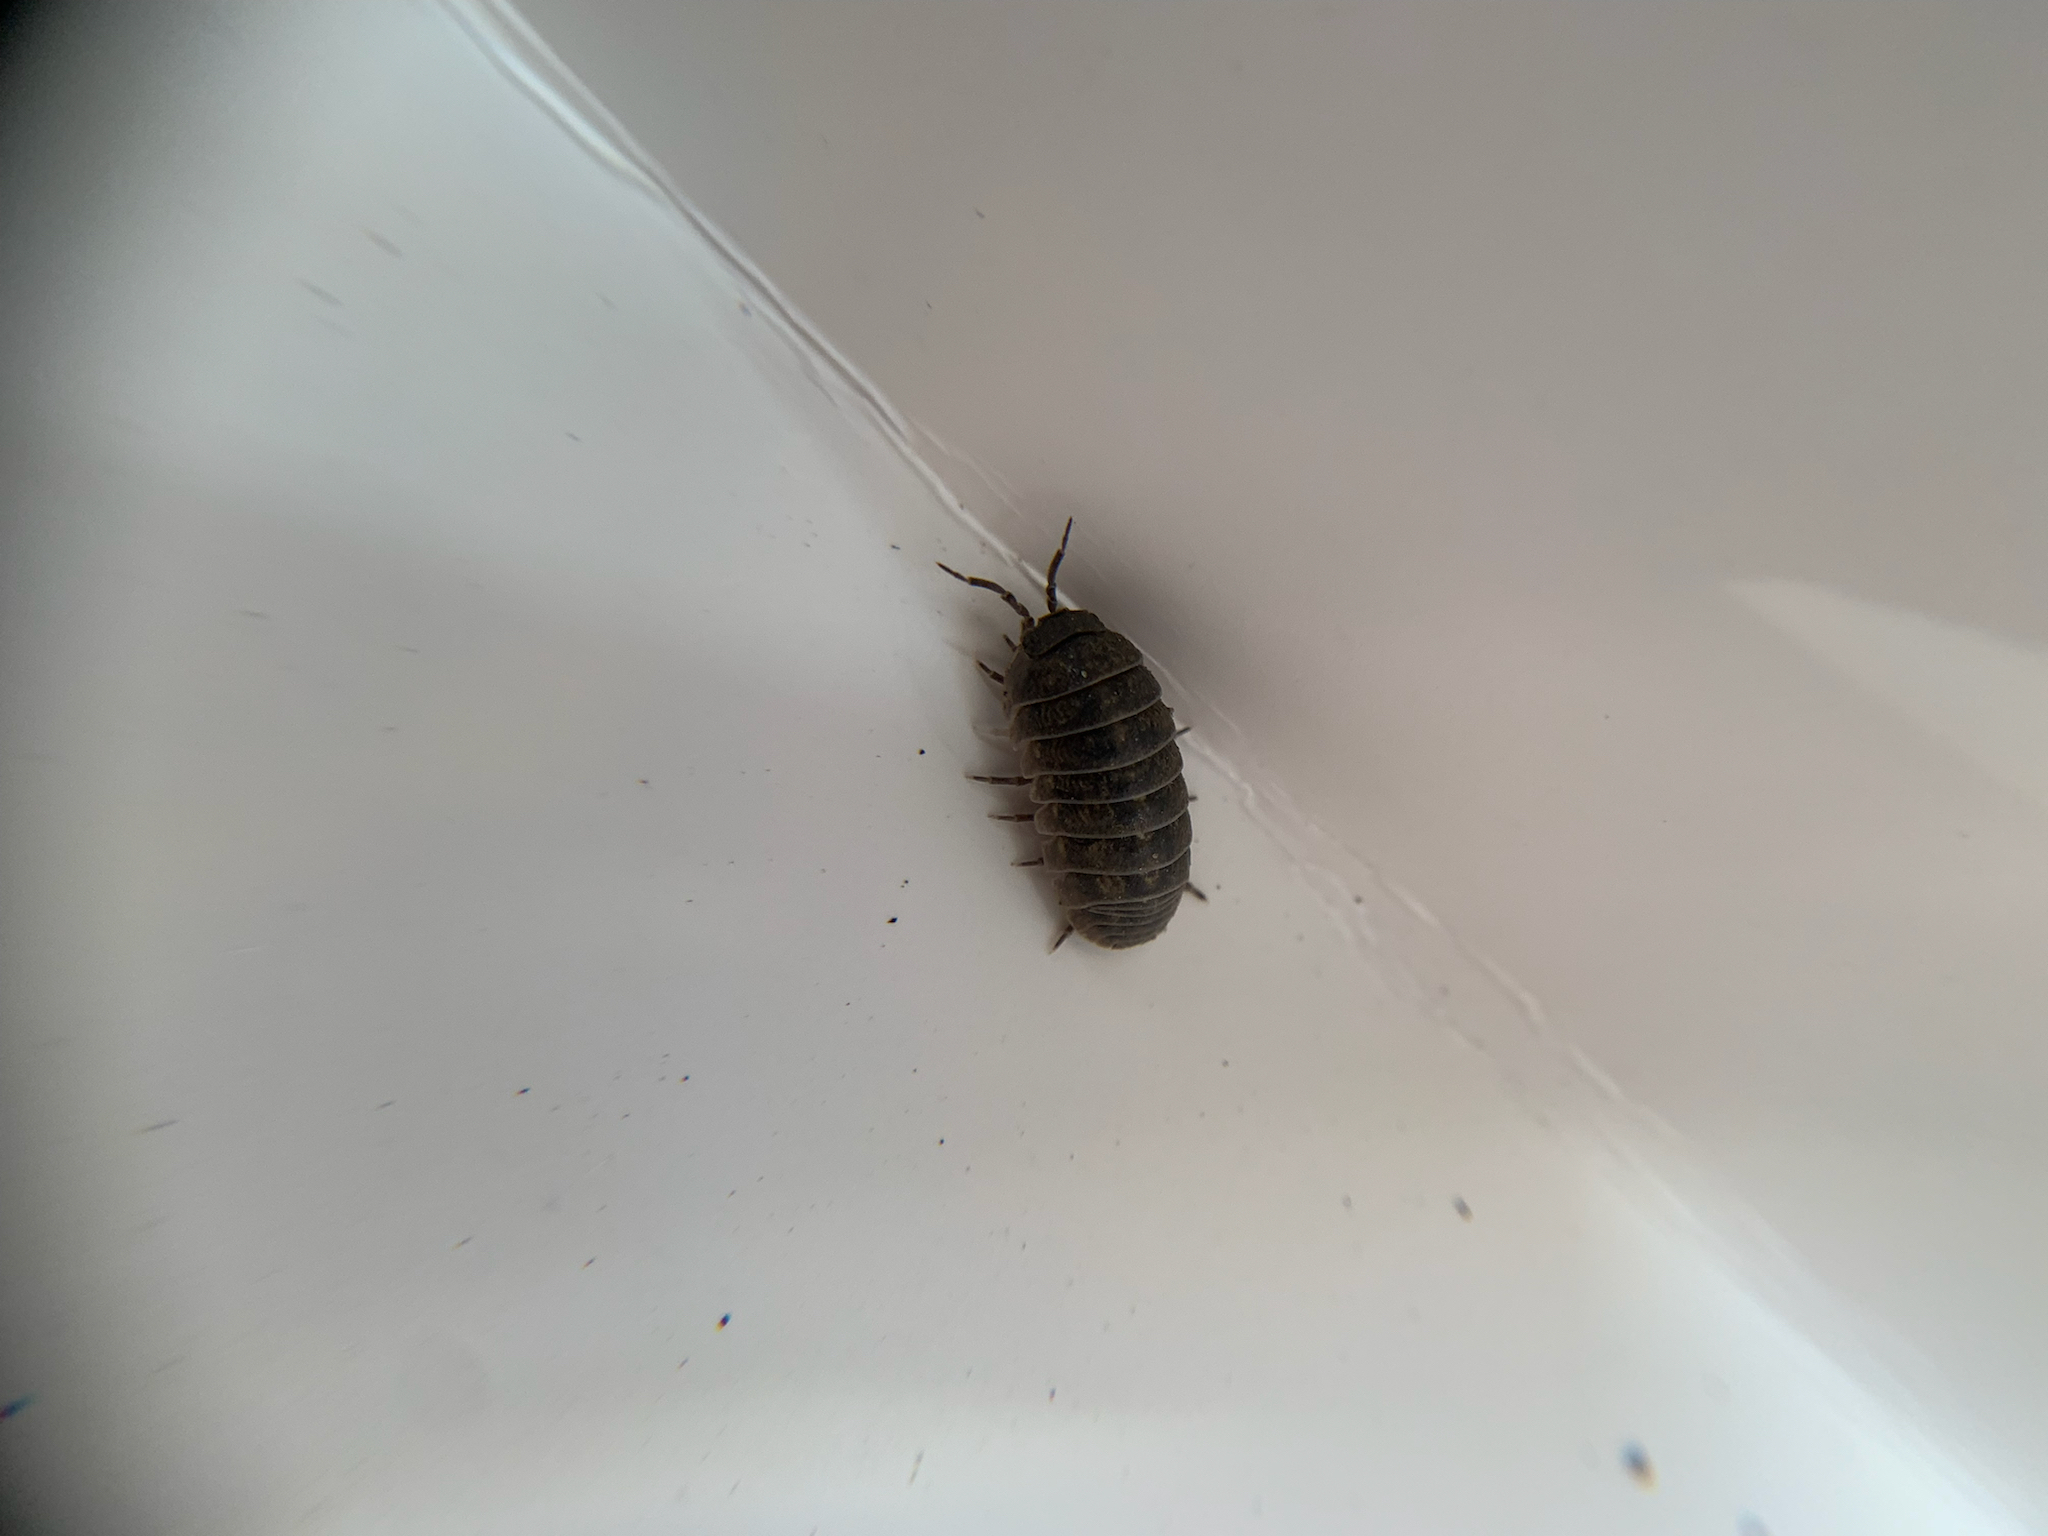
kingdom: Animalia
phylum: Arthropoda
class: Malacostraca
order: Isopoda
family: Armadillidiidae
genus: Armadillidium
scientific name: Armadillidium vulgare
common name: Common pill woodlouse
